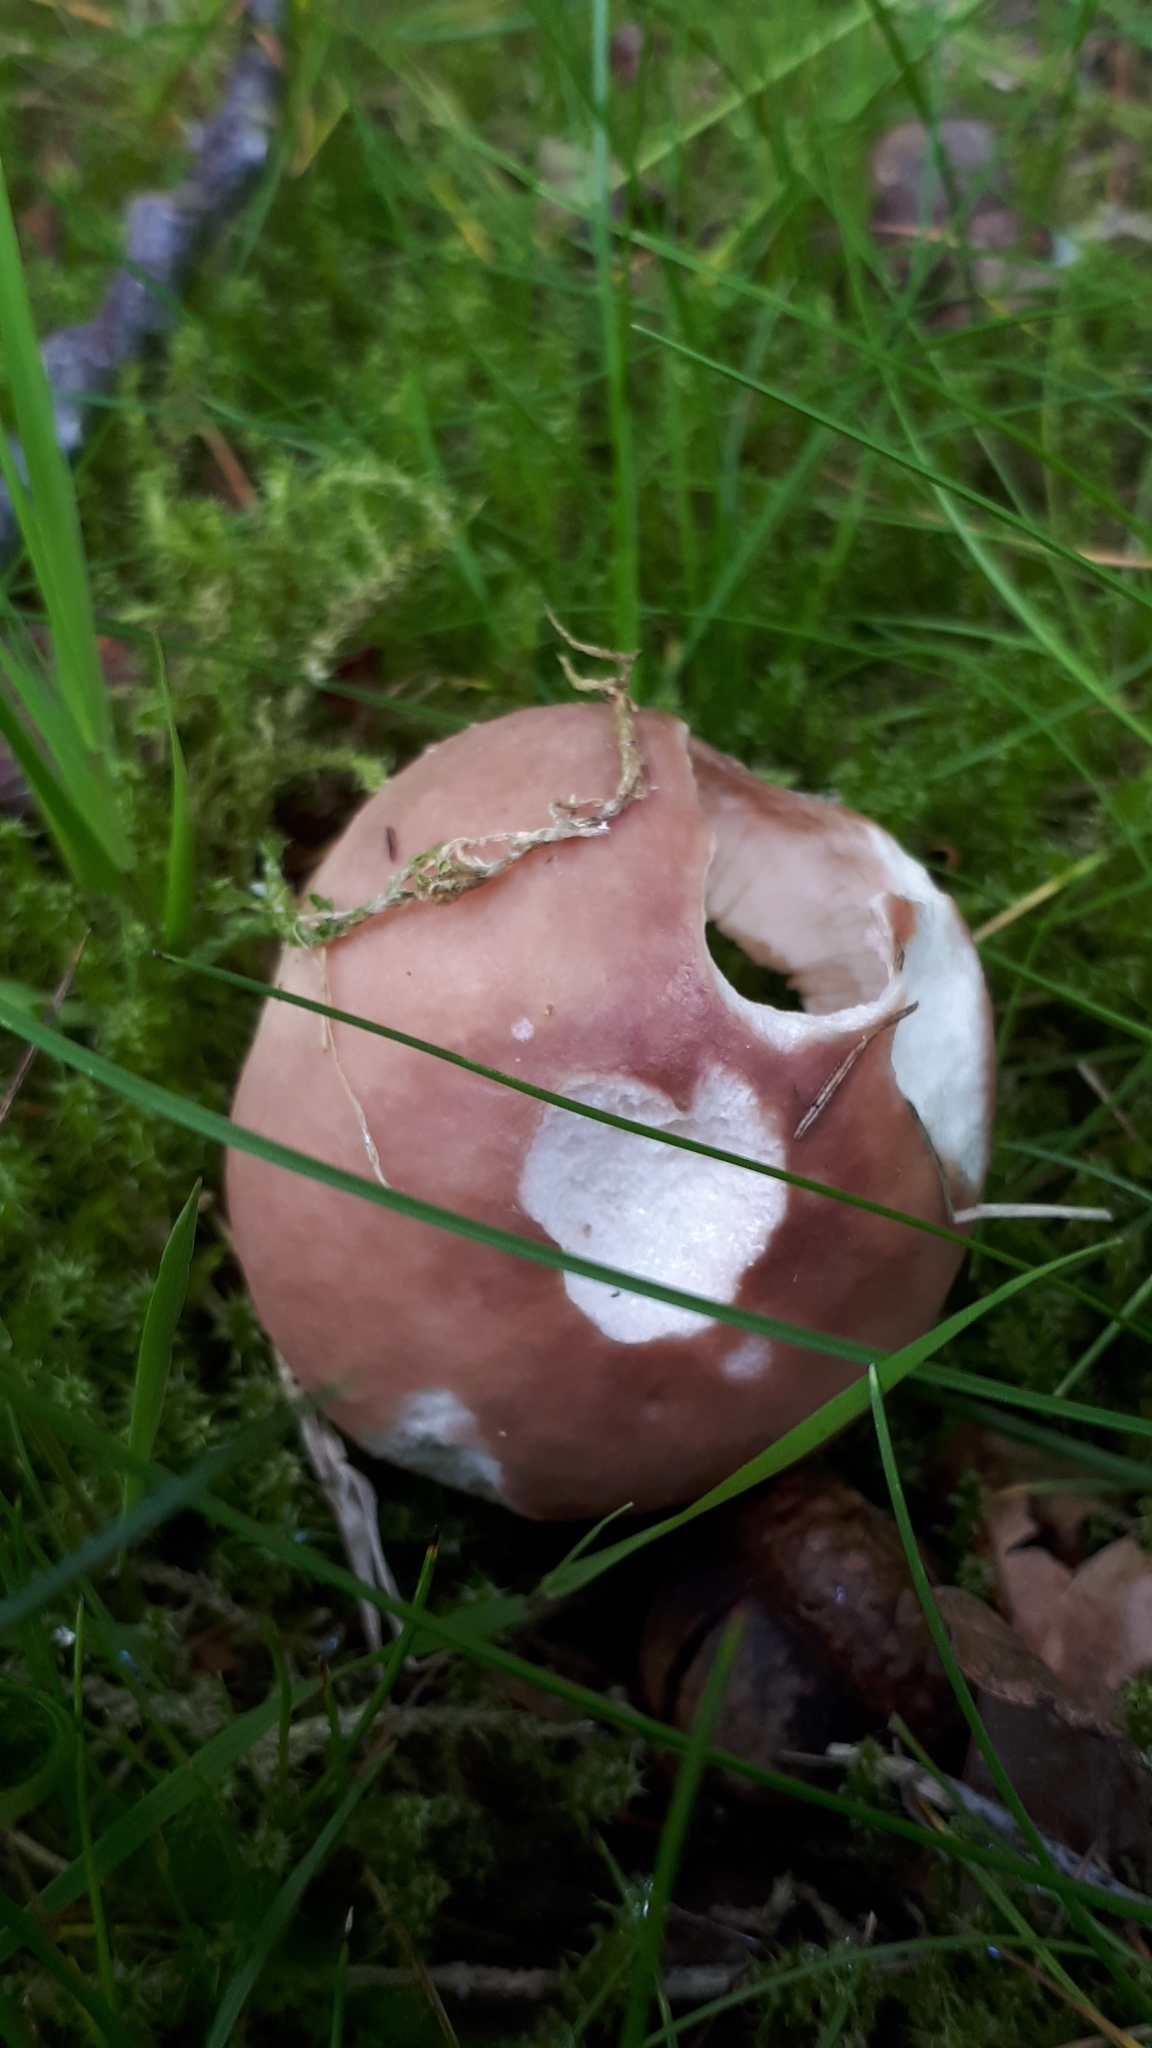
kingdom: Fungi
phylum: Basidiomycota
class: Agaricomycetes
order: Russulales
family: Russulaceae
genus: Russula
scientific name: Russula vesca
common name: Bare-toothed russula
